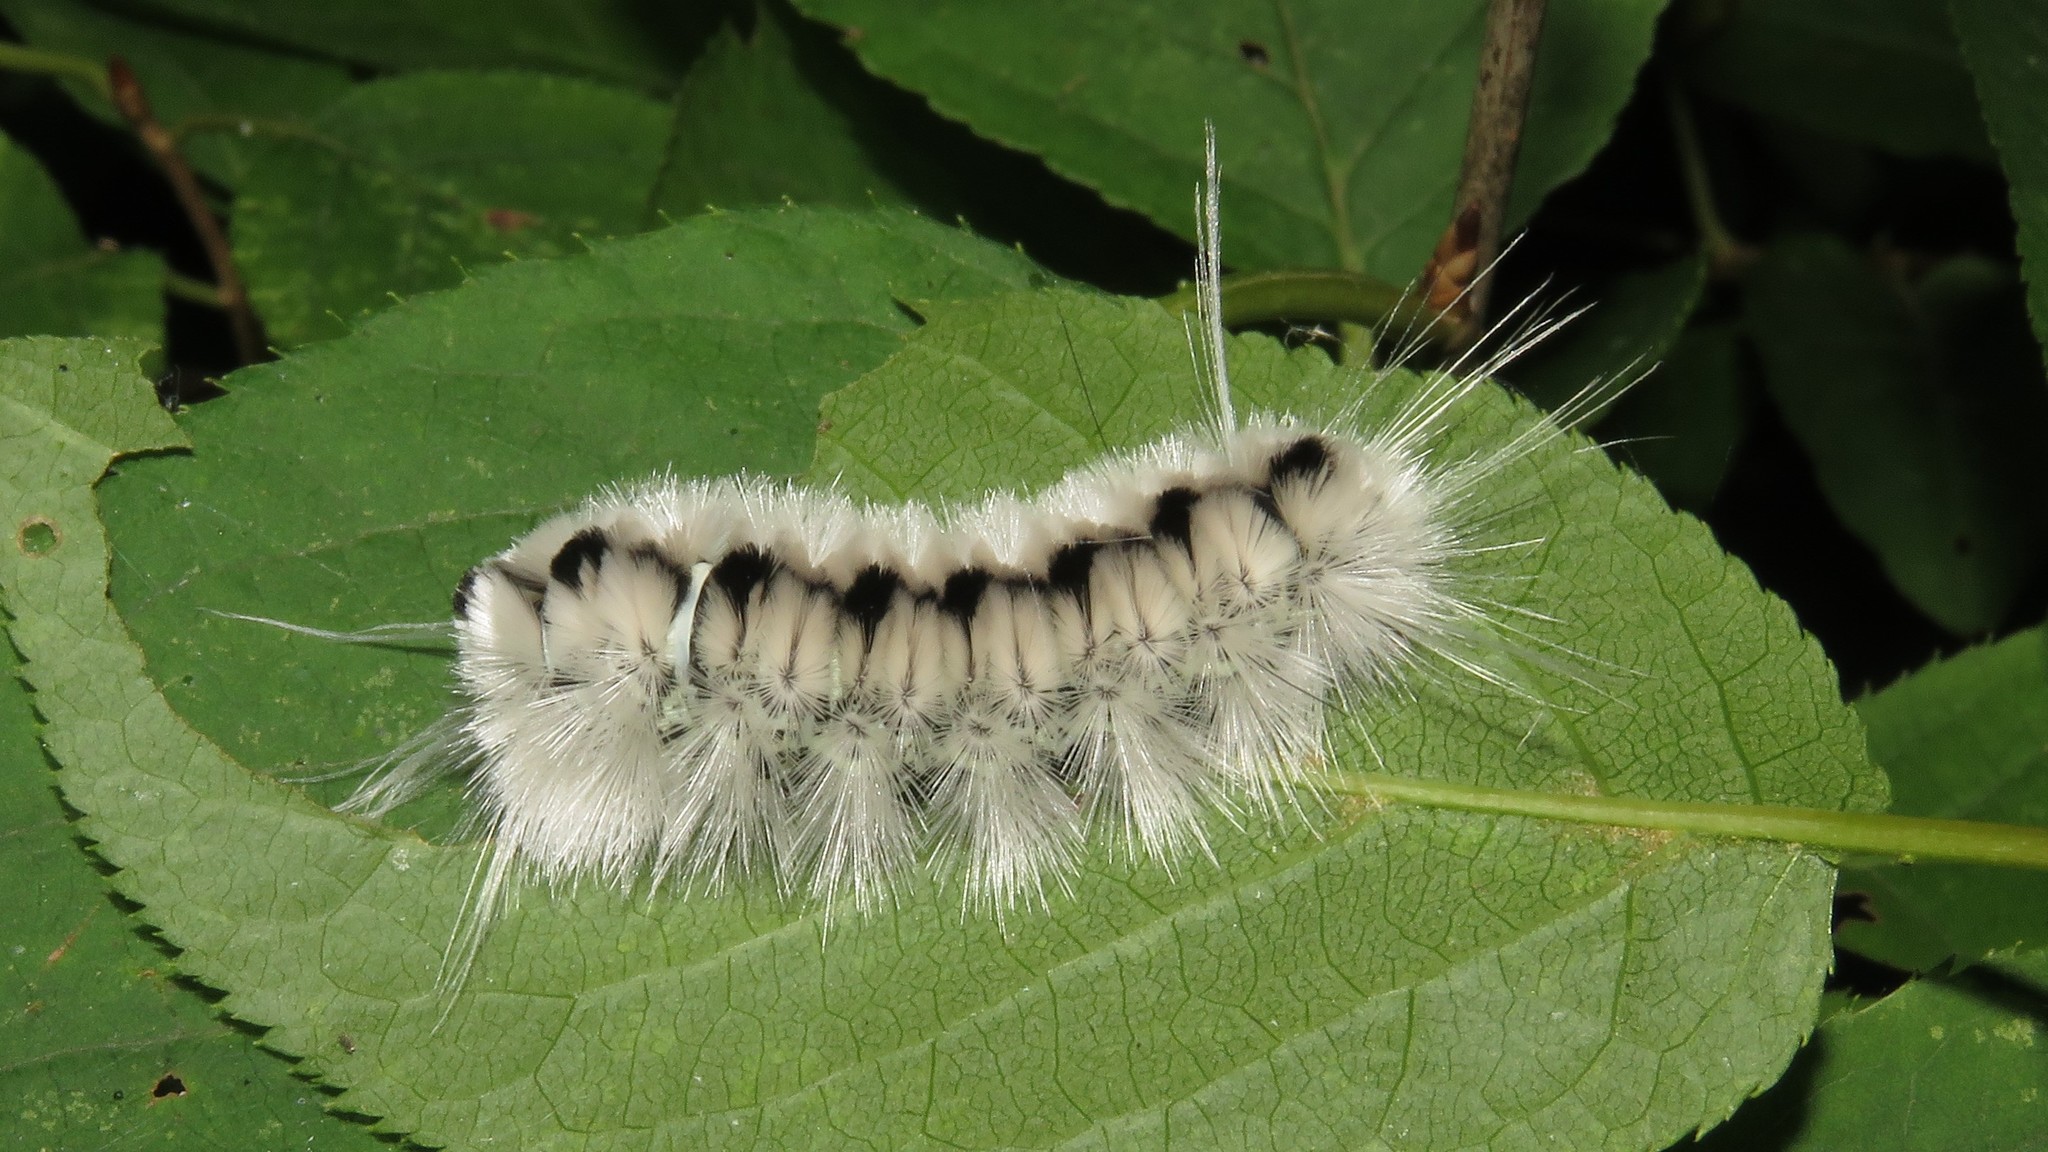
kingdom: Animalia
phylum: Arthropoda
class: Insecta
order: Lepidoptera
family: Erebidae
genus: Lophocampa
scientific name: Lophocampa caryae
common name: Hickory tussock moth
